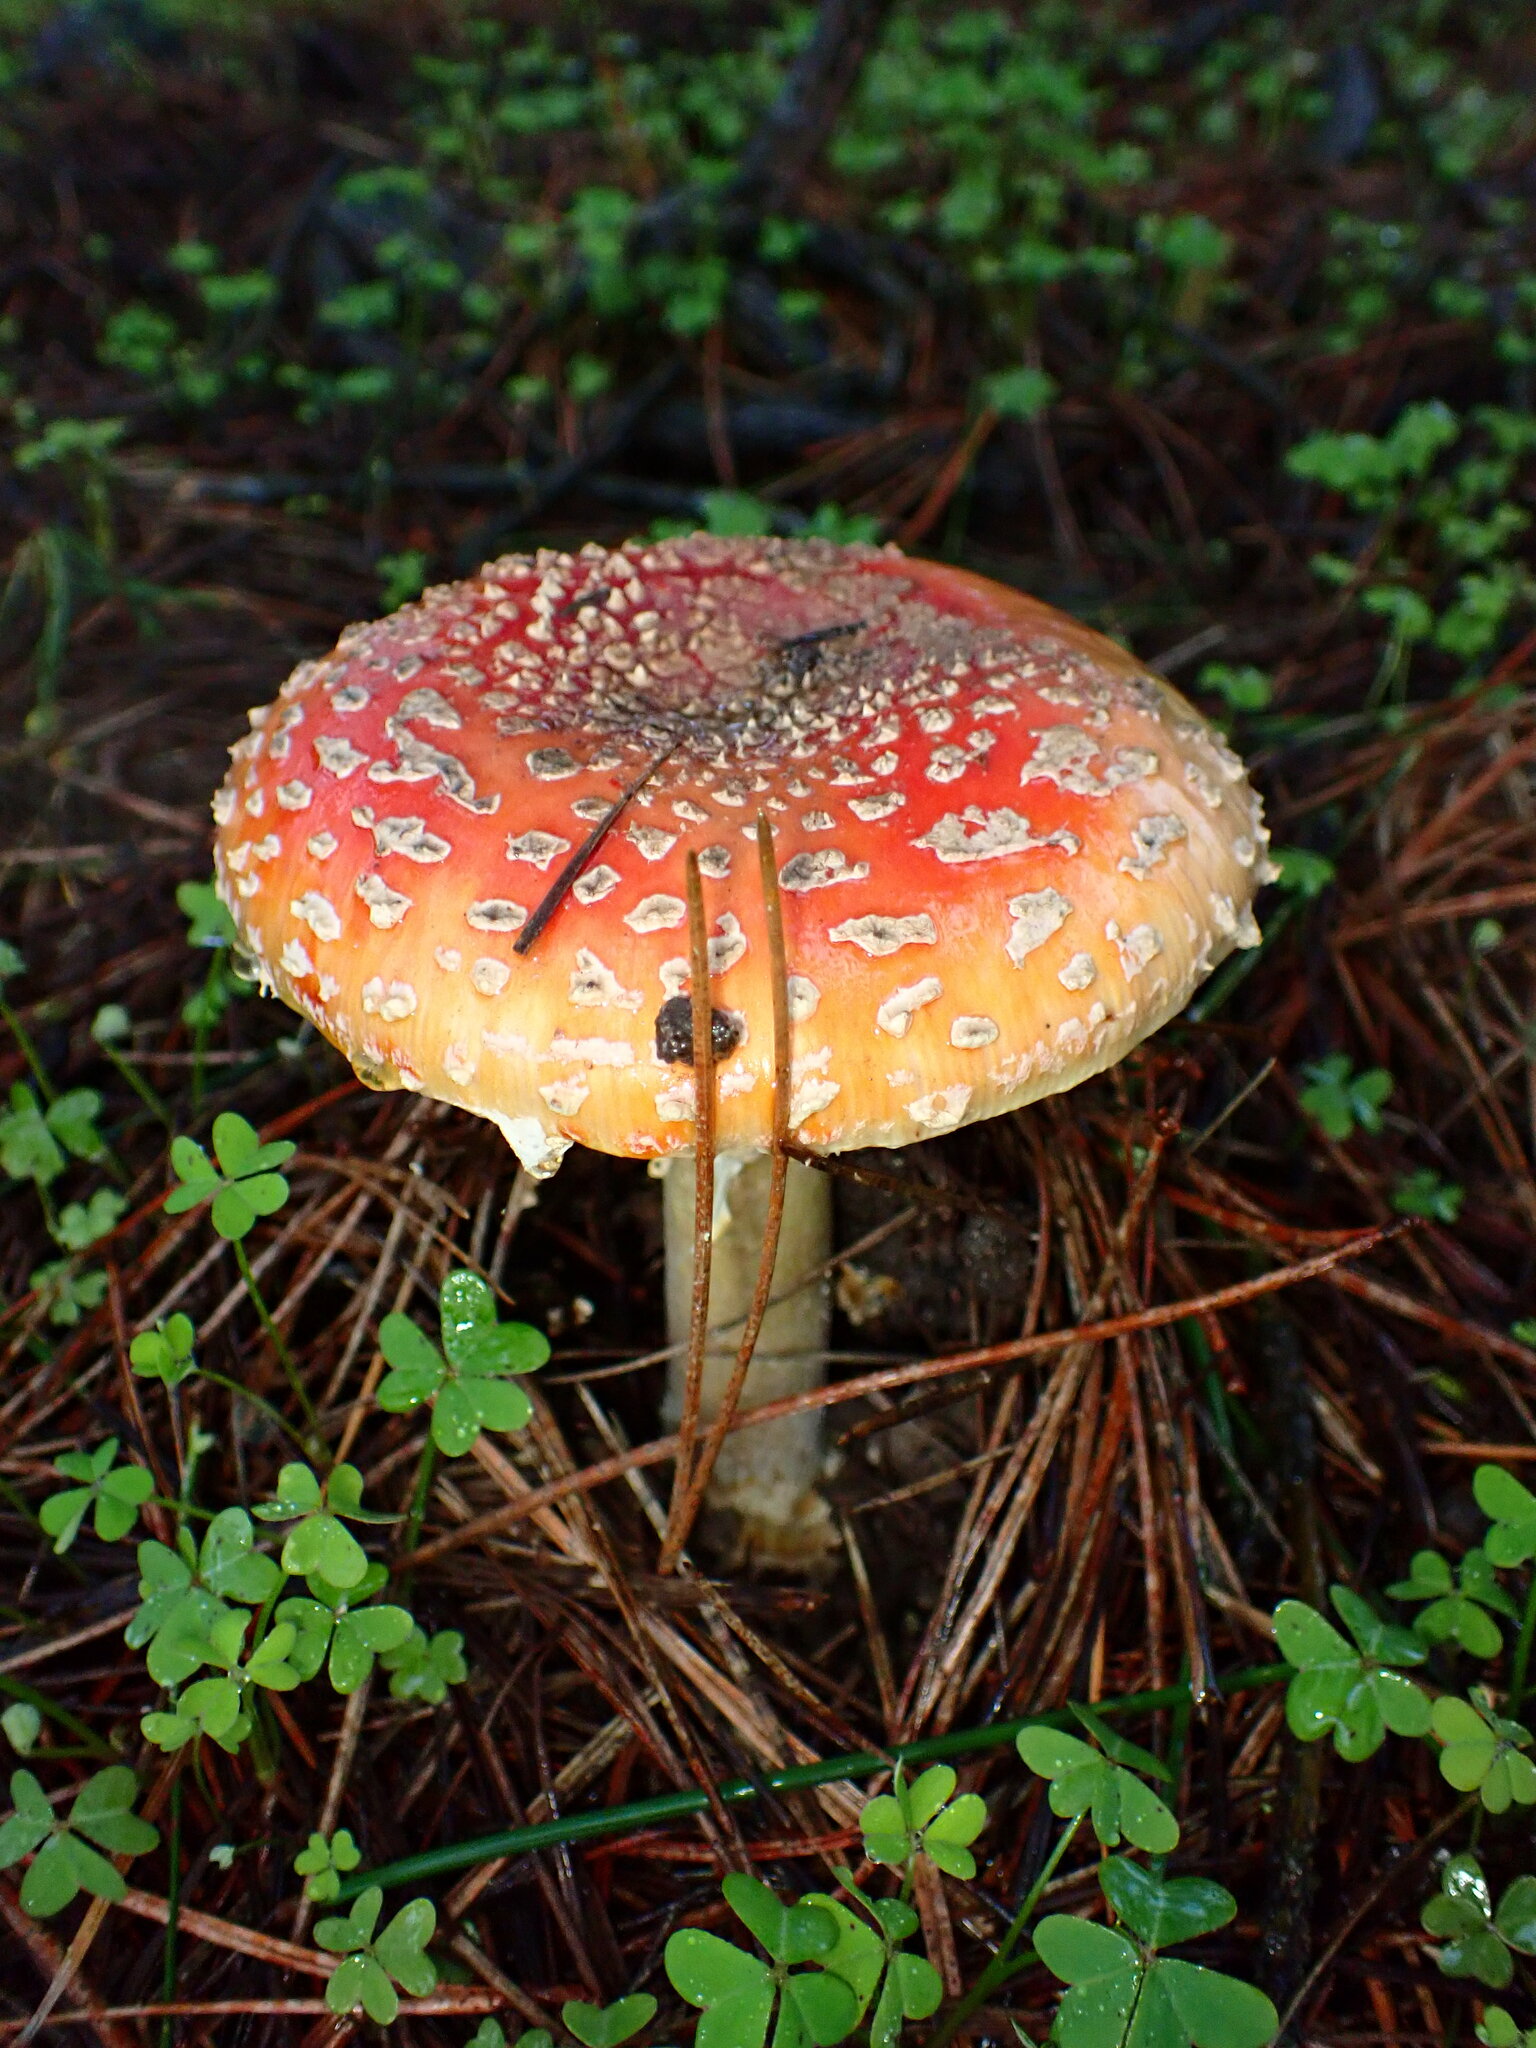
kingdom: Fungi
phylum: Basidiomycota
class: Agaricomycetes
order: Agaricales
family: Amanitaceae
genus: Amanita
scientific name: Amanita muscaria
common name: Fly agaric
